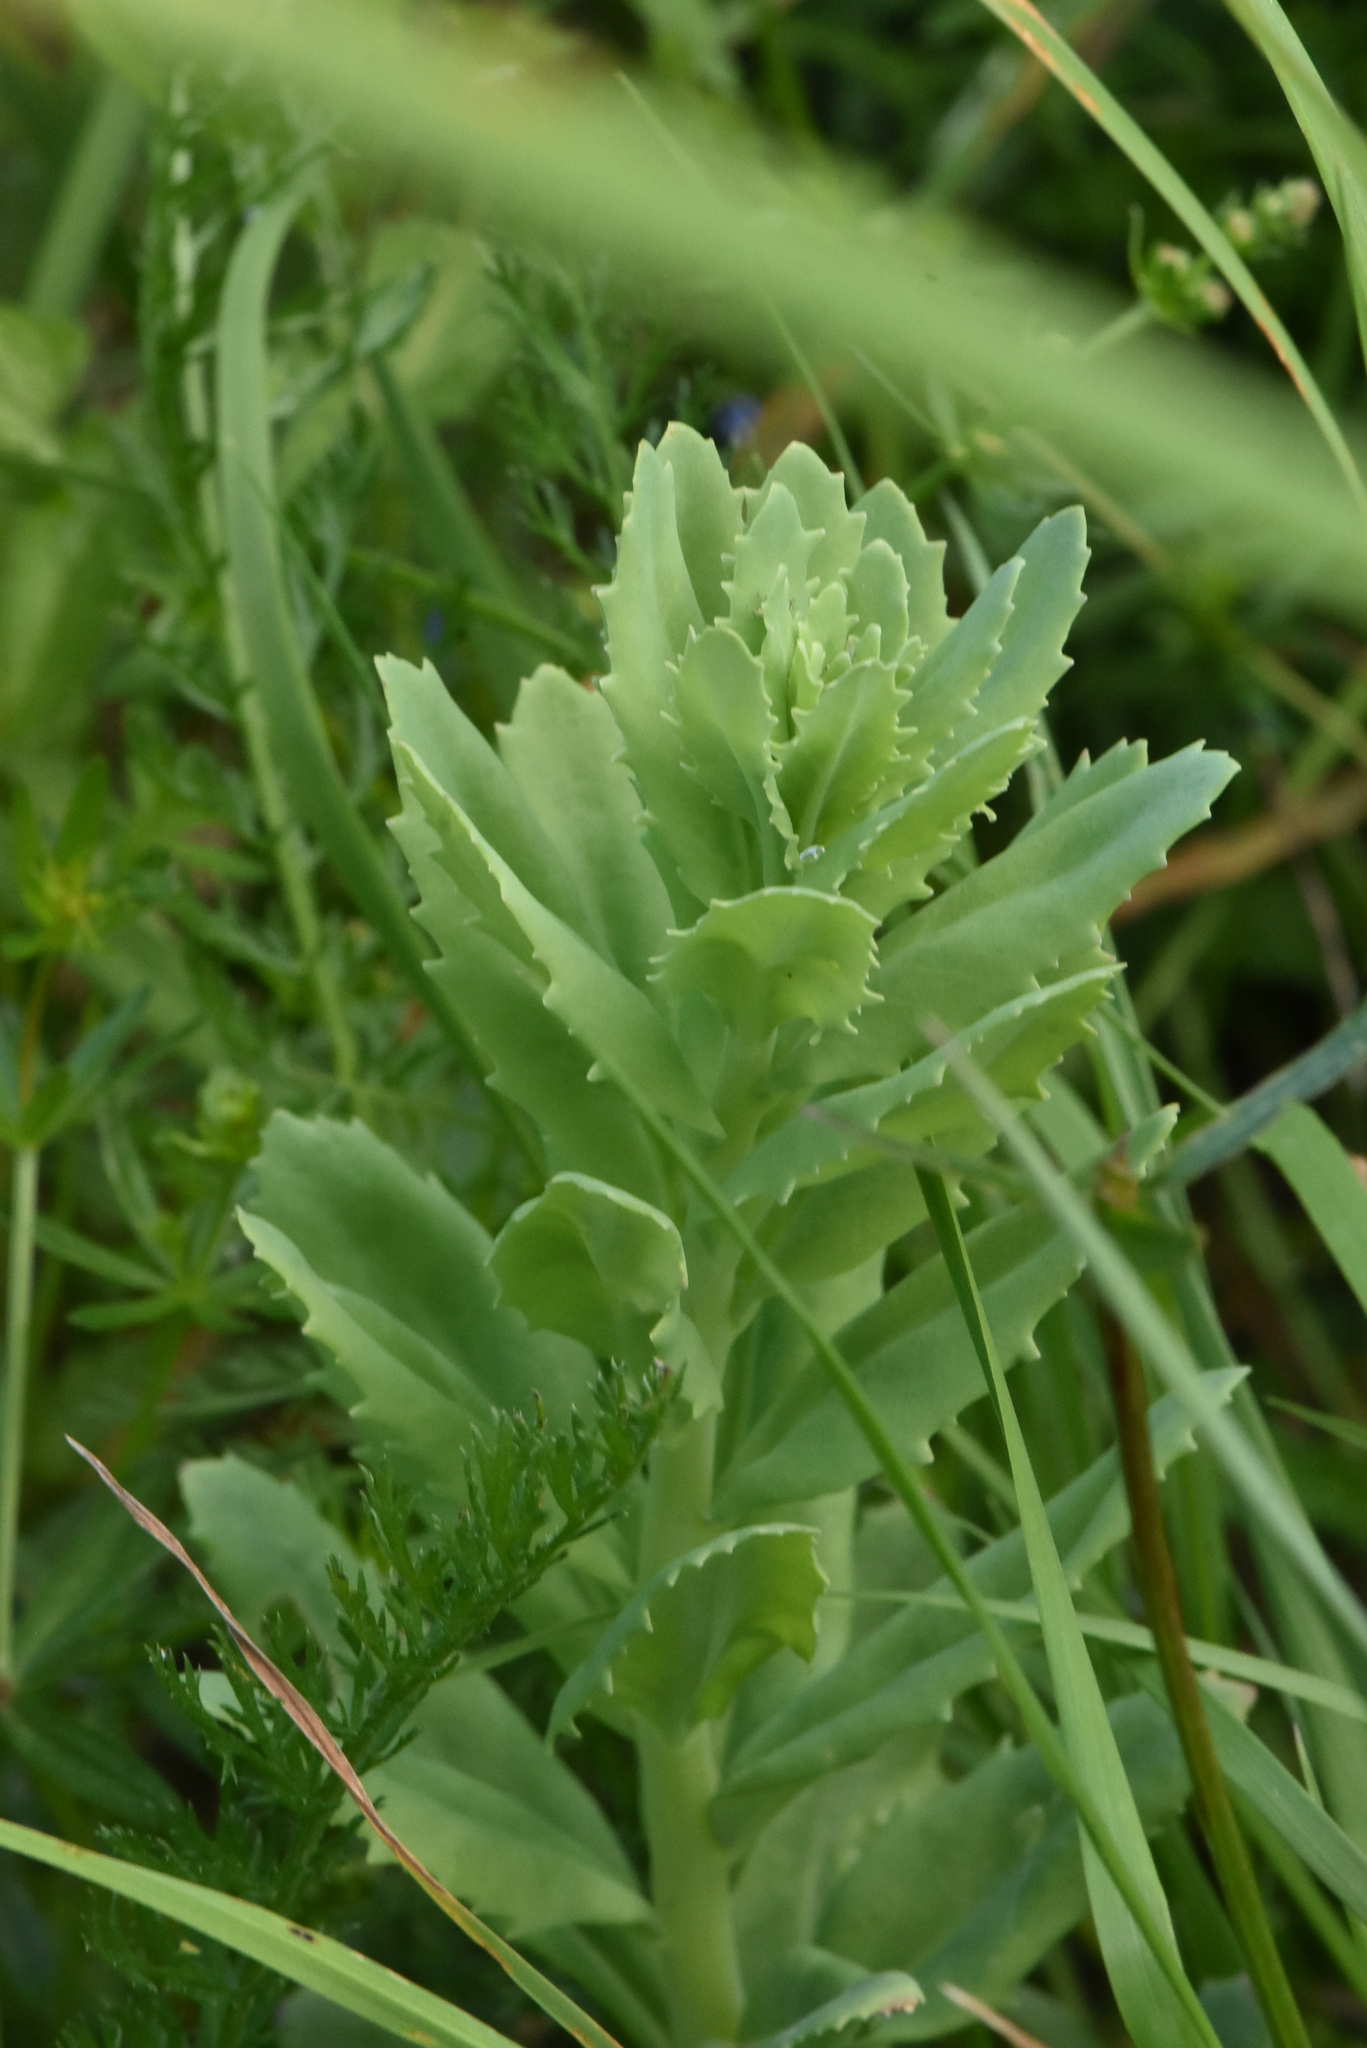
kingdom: Plantae
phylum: Tracheophyta
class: Magnoliopsida
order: Saxifragales
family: Crassulaceae
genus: Hylotelephium
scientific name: Hylotelephium telephium
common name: Live-forever
